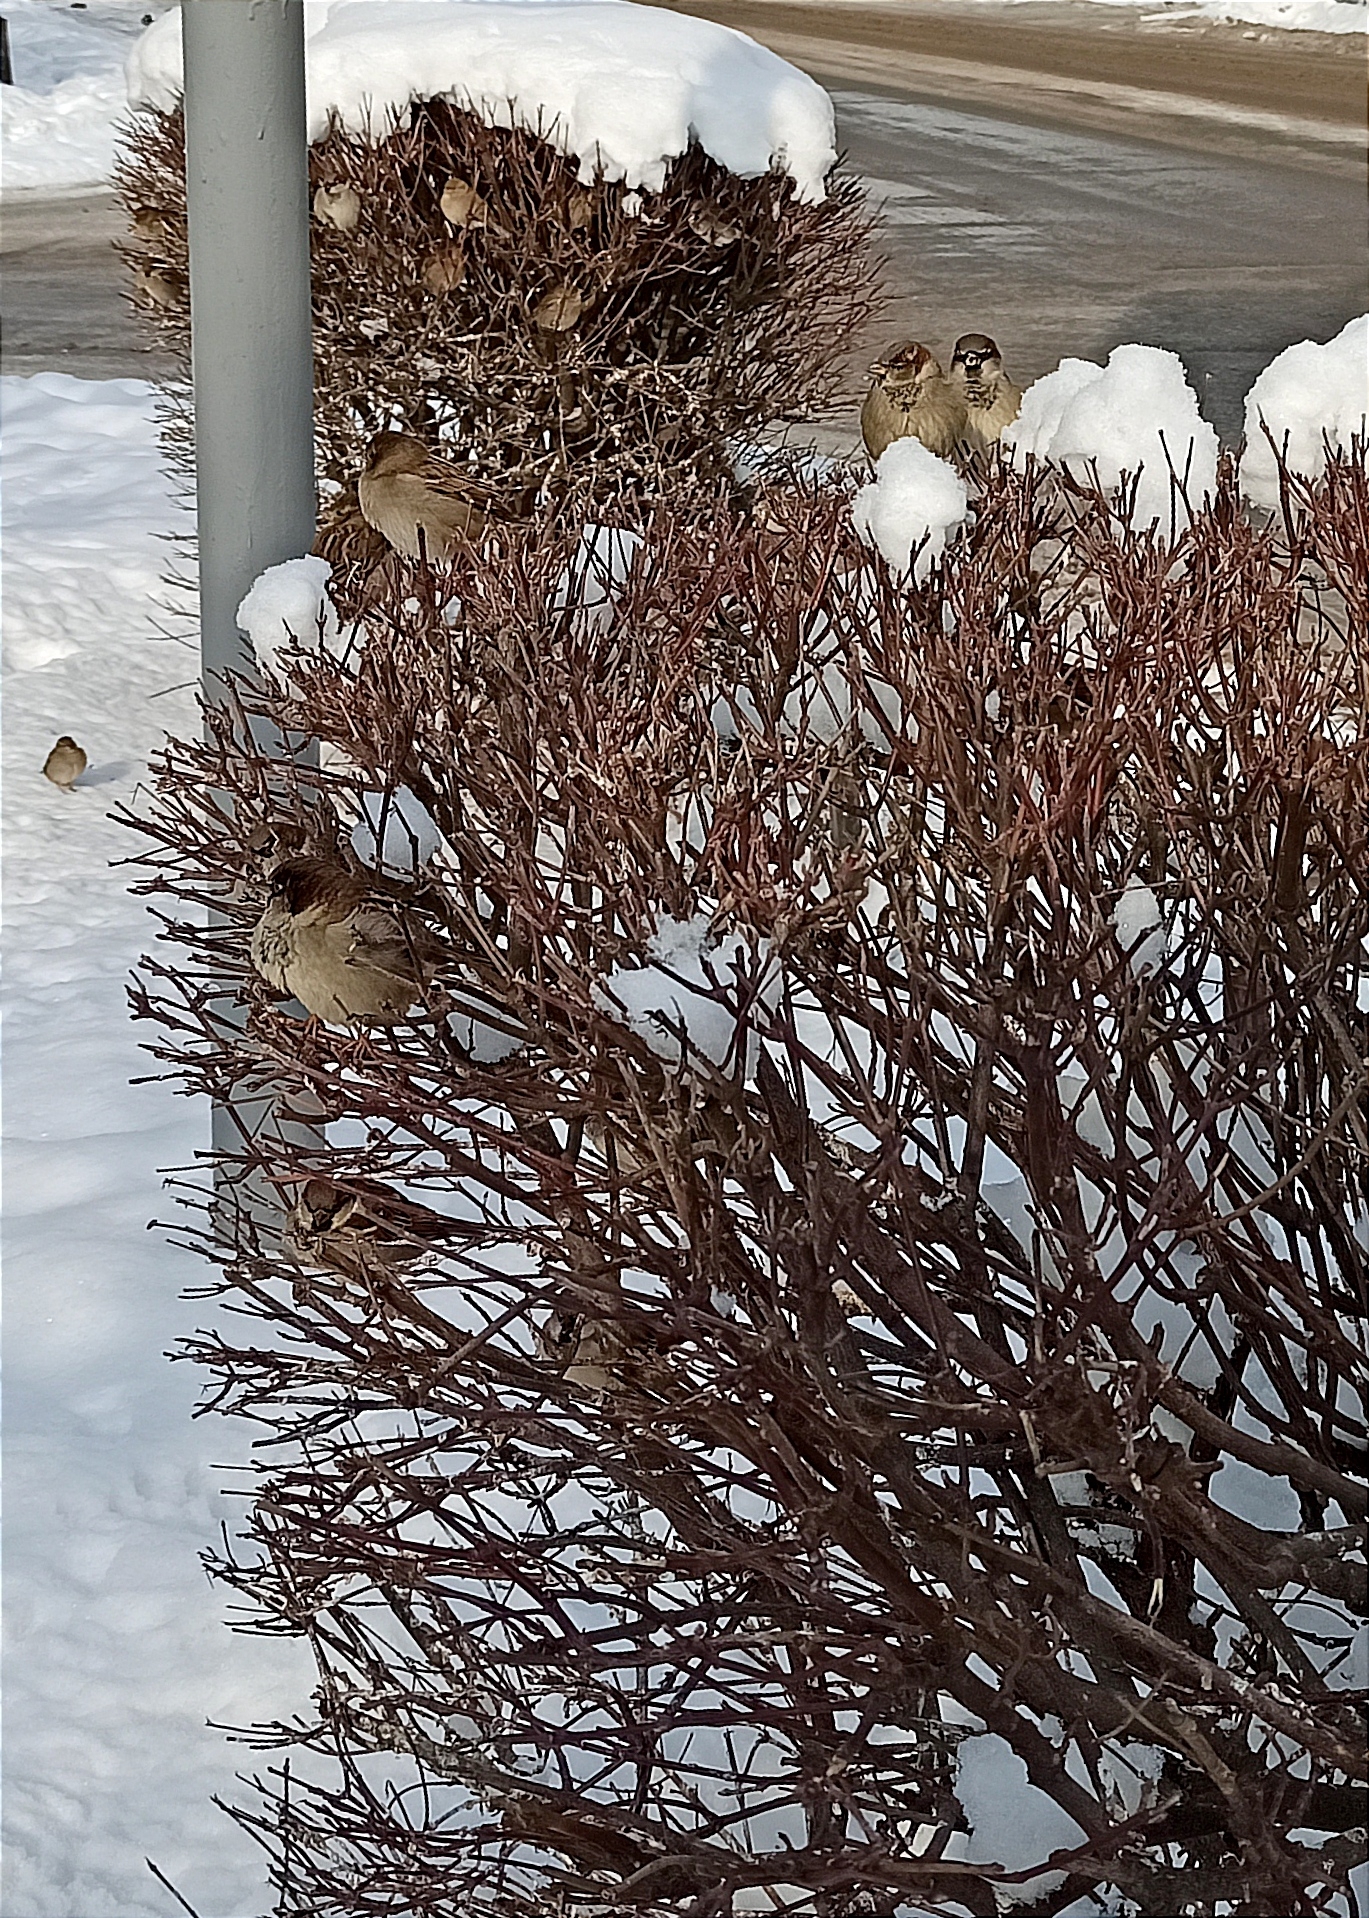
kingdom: Animalia
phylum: Chordata
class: Aves
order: Passeriformes
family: Passeridae
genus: Passer
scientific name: Passer domesticus
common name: House sparrow
